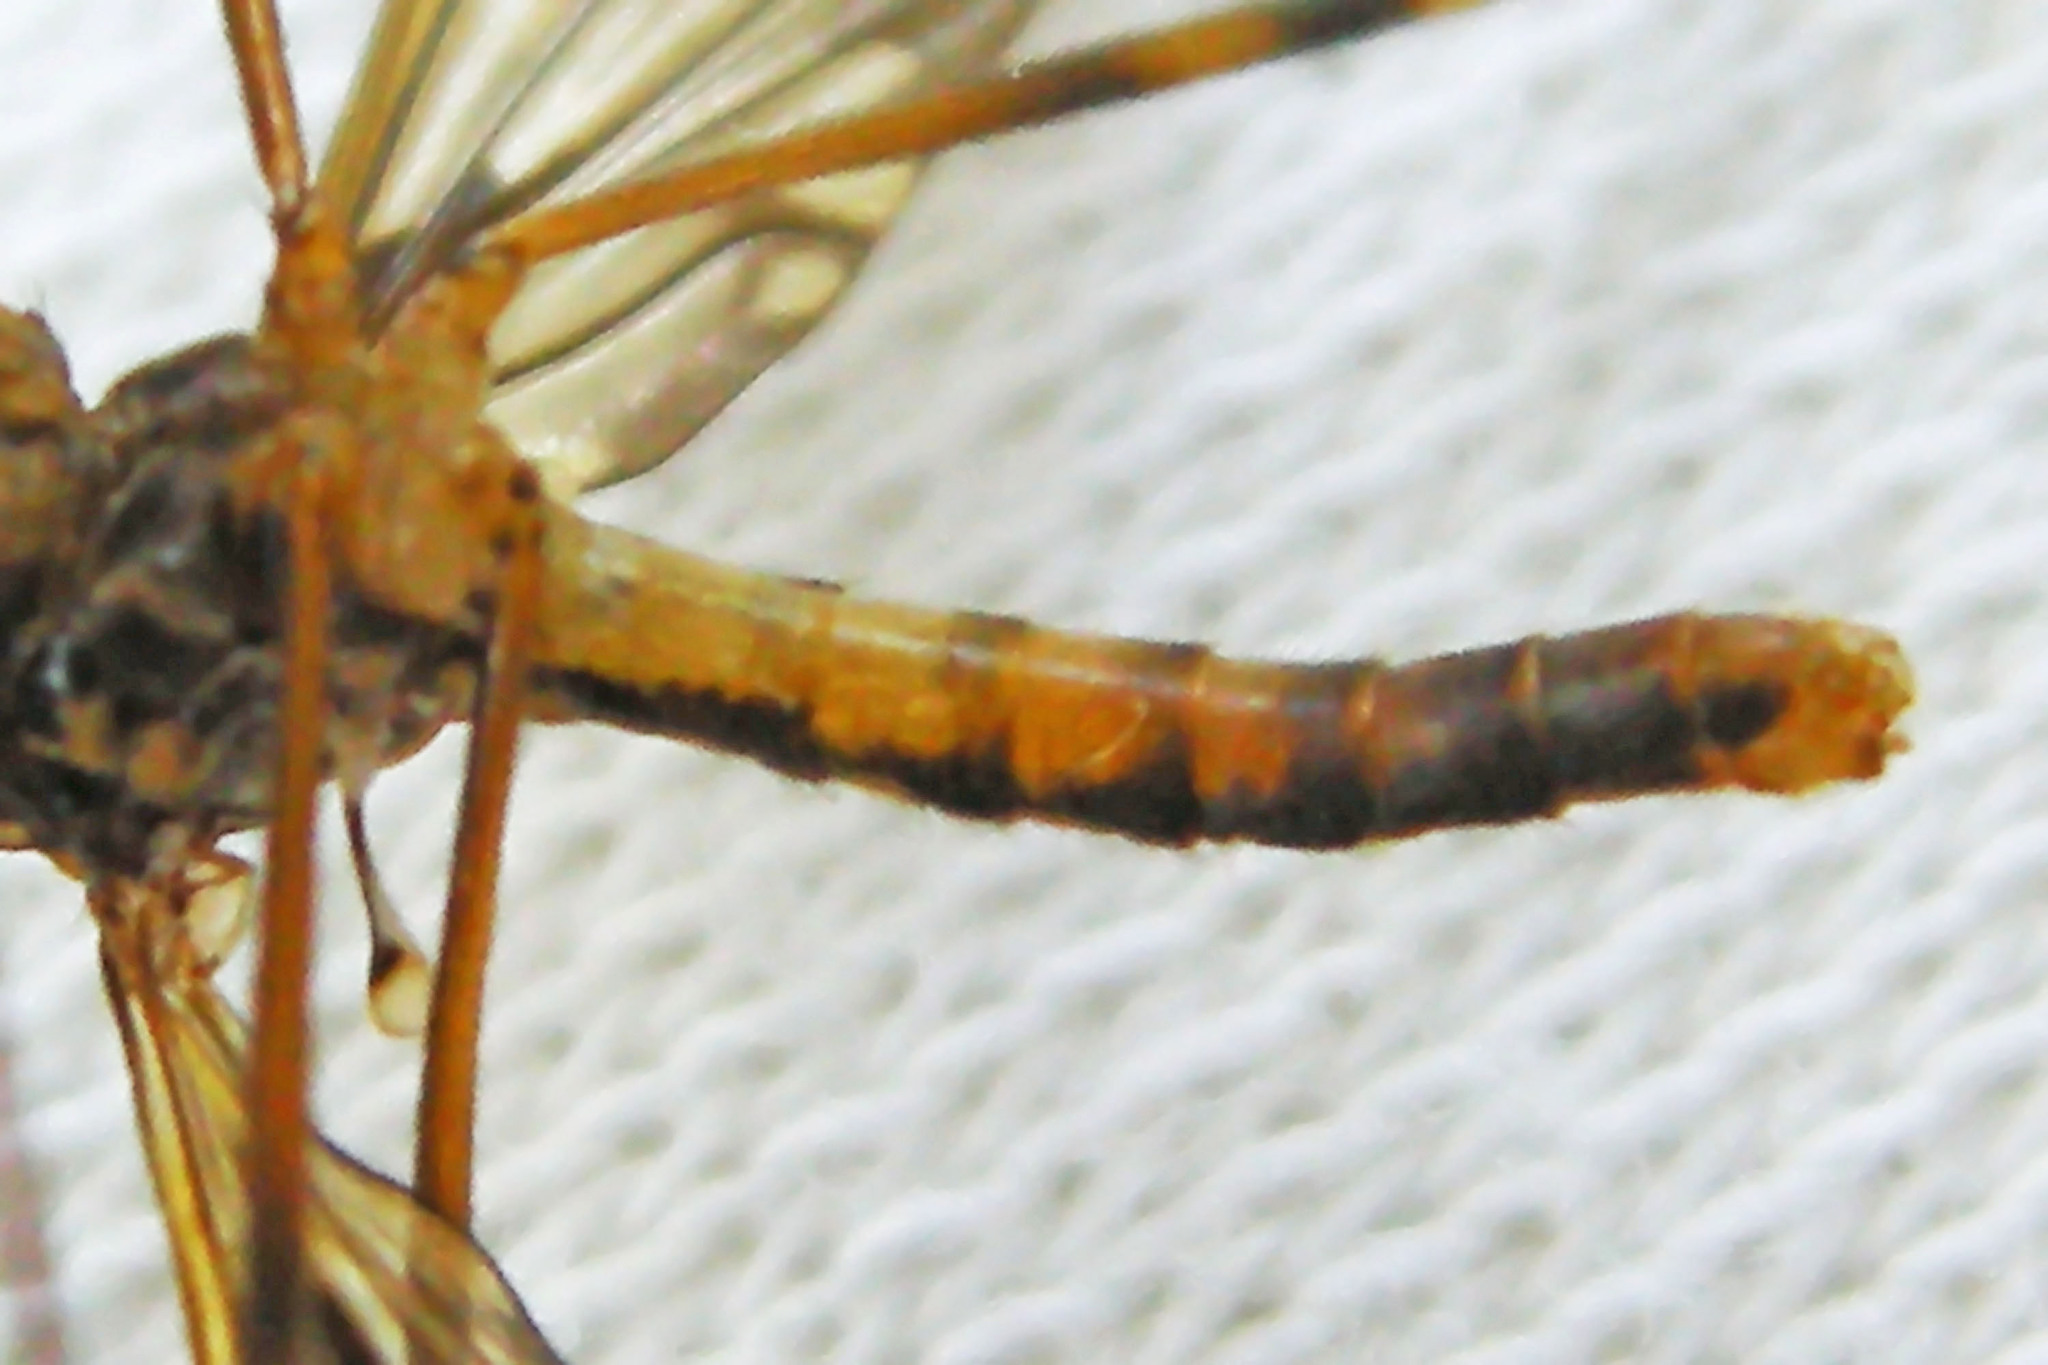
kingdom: Animalia
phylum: Arthropoda
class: Insecta
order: Diptera
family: Limoniidae
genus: Metalimnobia
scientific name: Metalimnobia immatura
